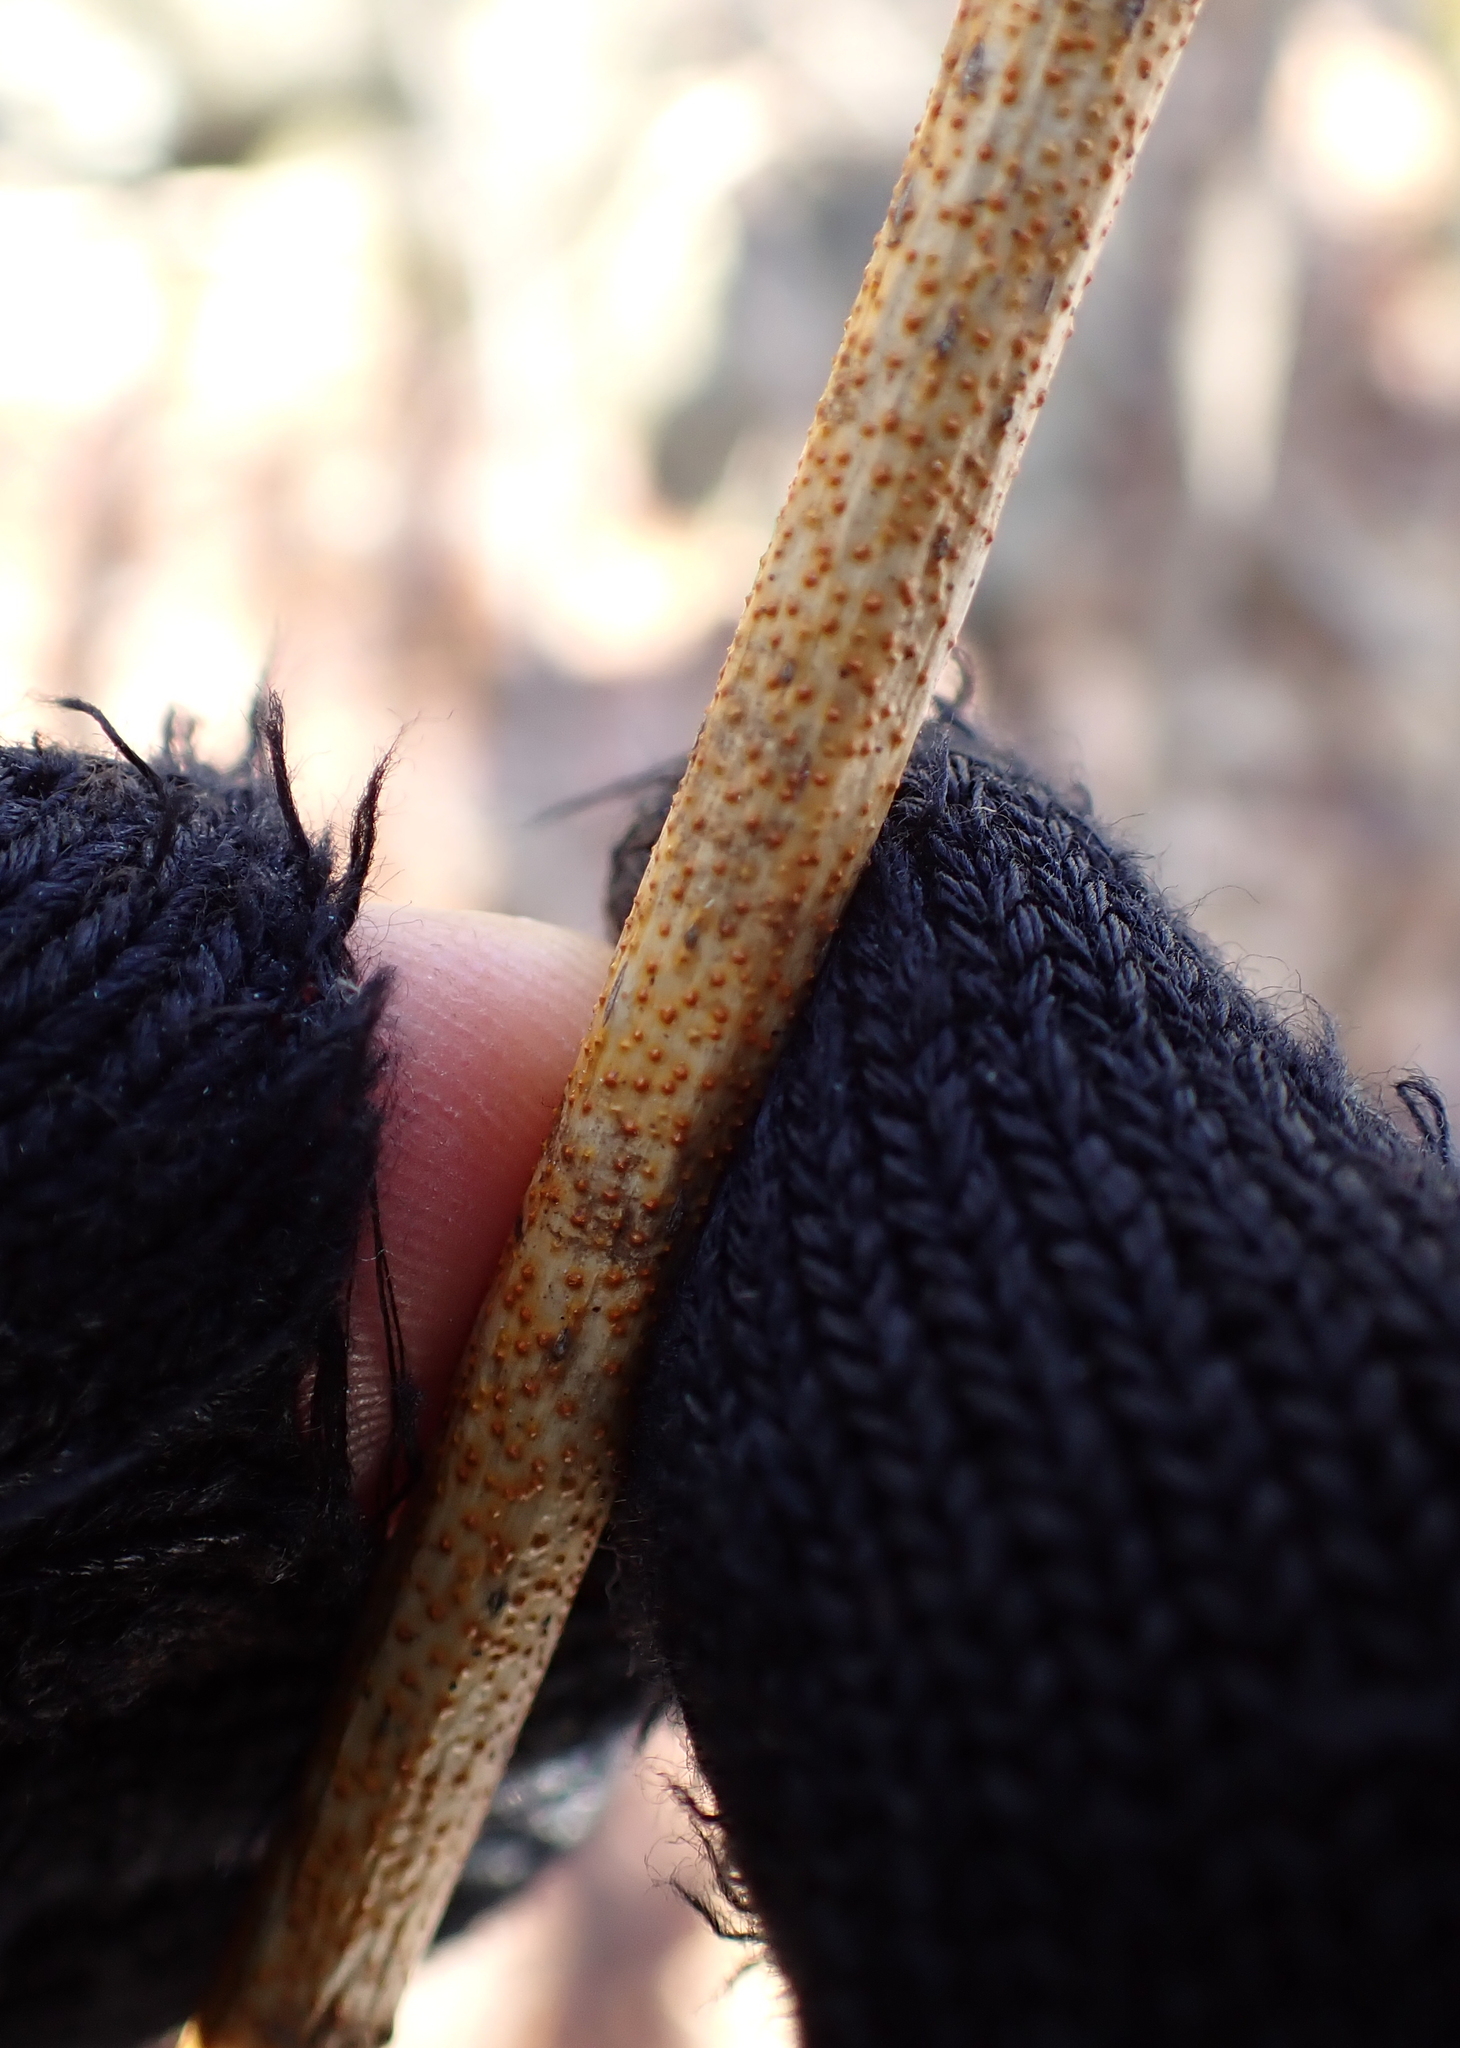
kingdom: Fungi
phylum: Ascomycota
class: Sordariomycetes
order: Diaporthales
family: Cryphonectriaceae
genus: Aurantioporthe
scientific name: Aurantioporthe corni
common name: Dogwood golden canker
